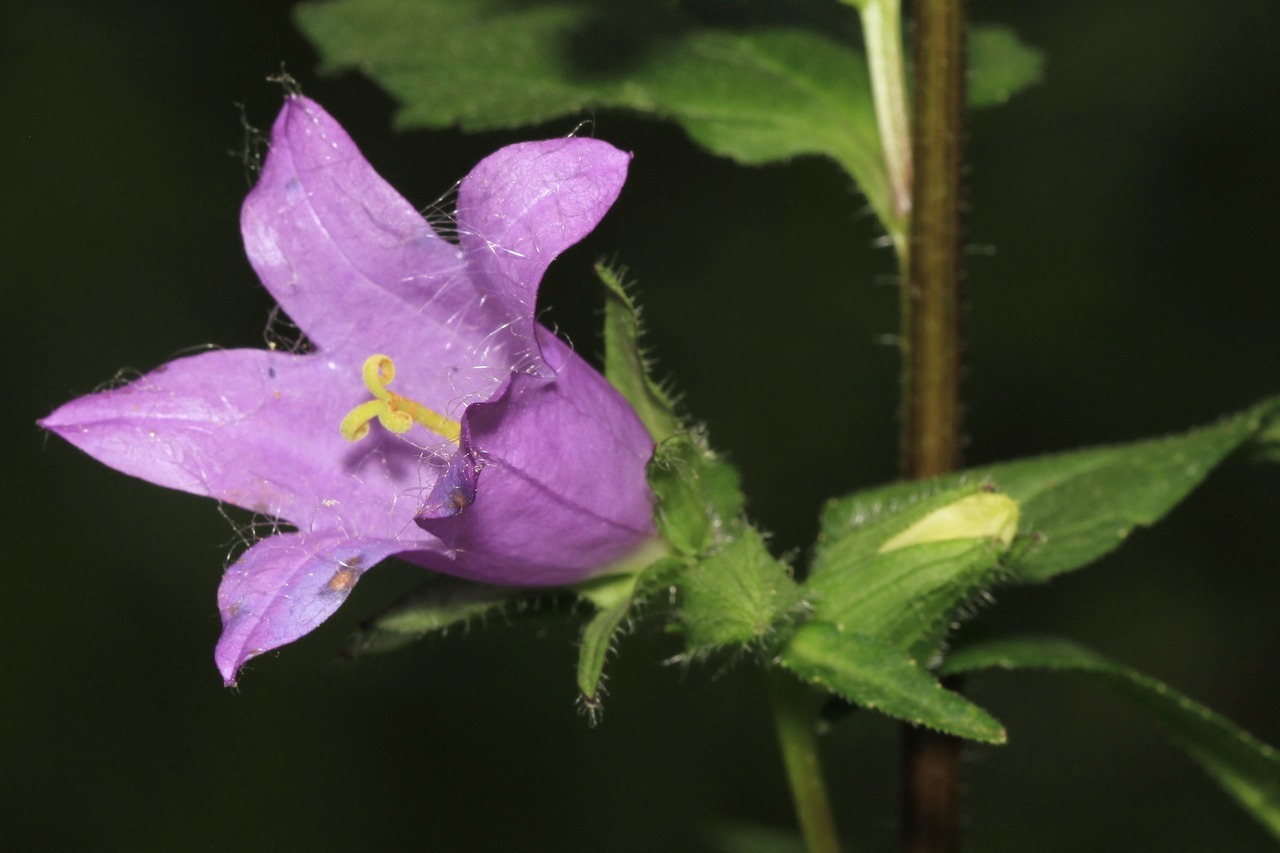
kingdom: Plantae
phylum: Tracheophyta
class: Magnoliopsida
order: Asterales
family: Campanulaceae
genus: Campanula
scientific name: Campanula trachelium
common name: Nettle-leaved bellflower
